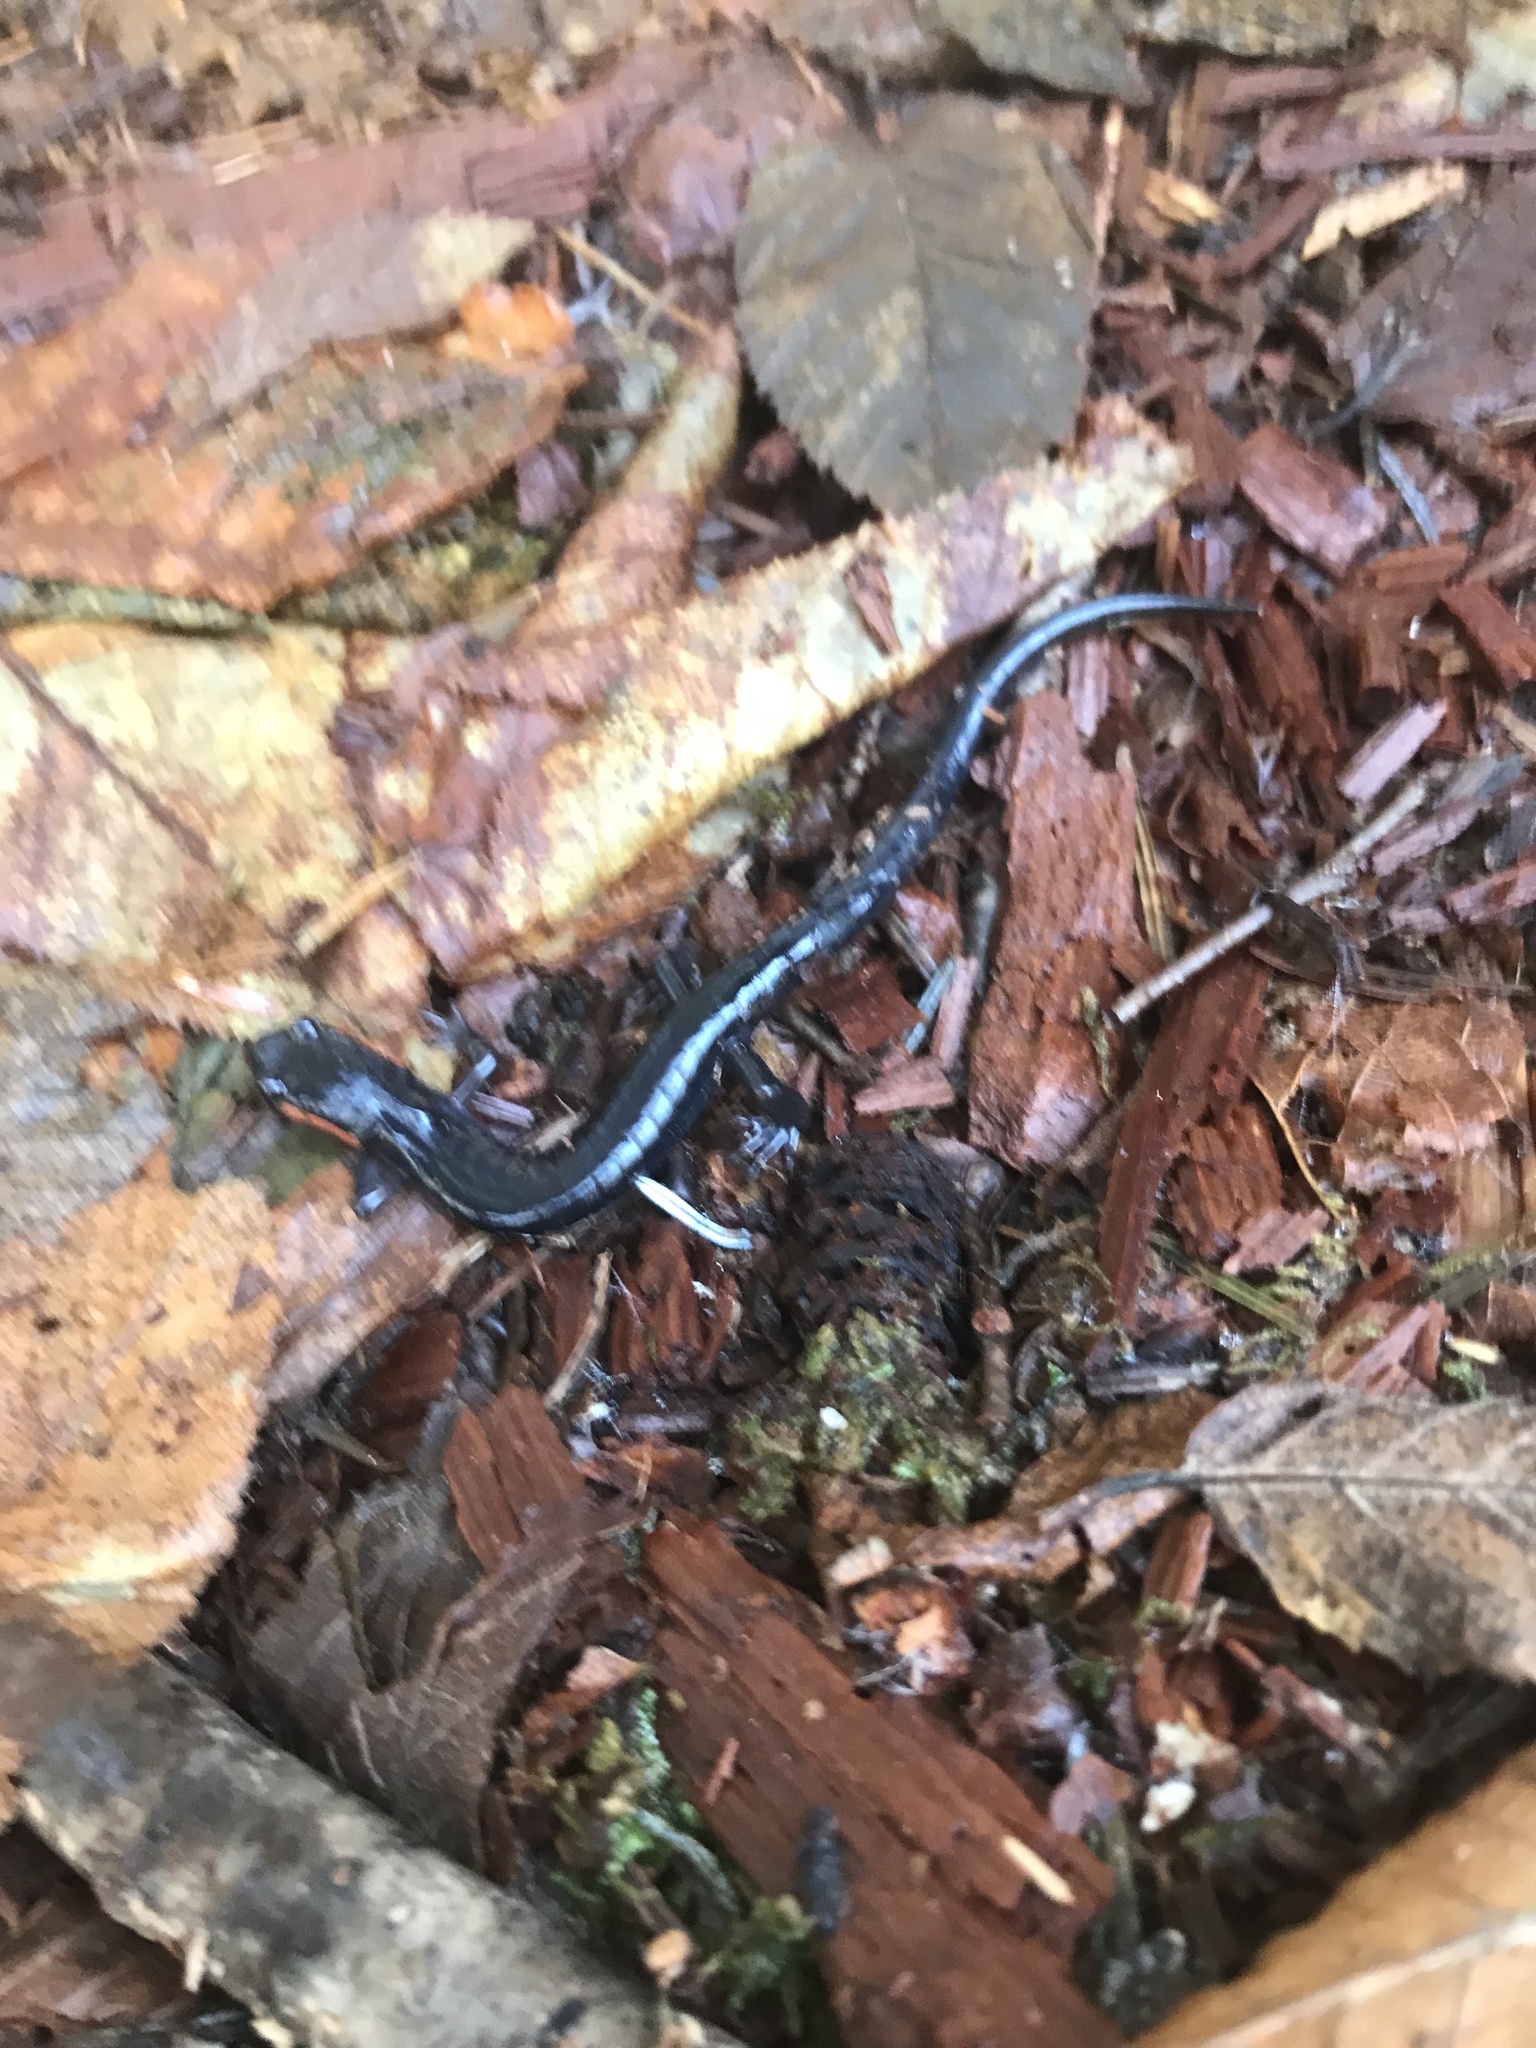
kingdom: Animalia
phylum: Chordata
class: Amphibia
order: Caudata
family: Plethodontidae
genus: Plethodon
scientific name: Plethodon jordani
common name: Red-cheeked salamander
